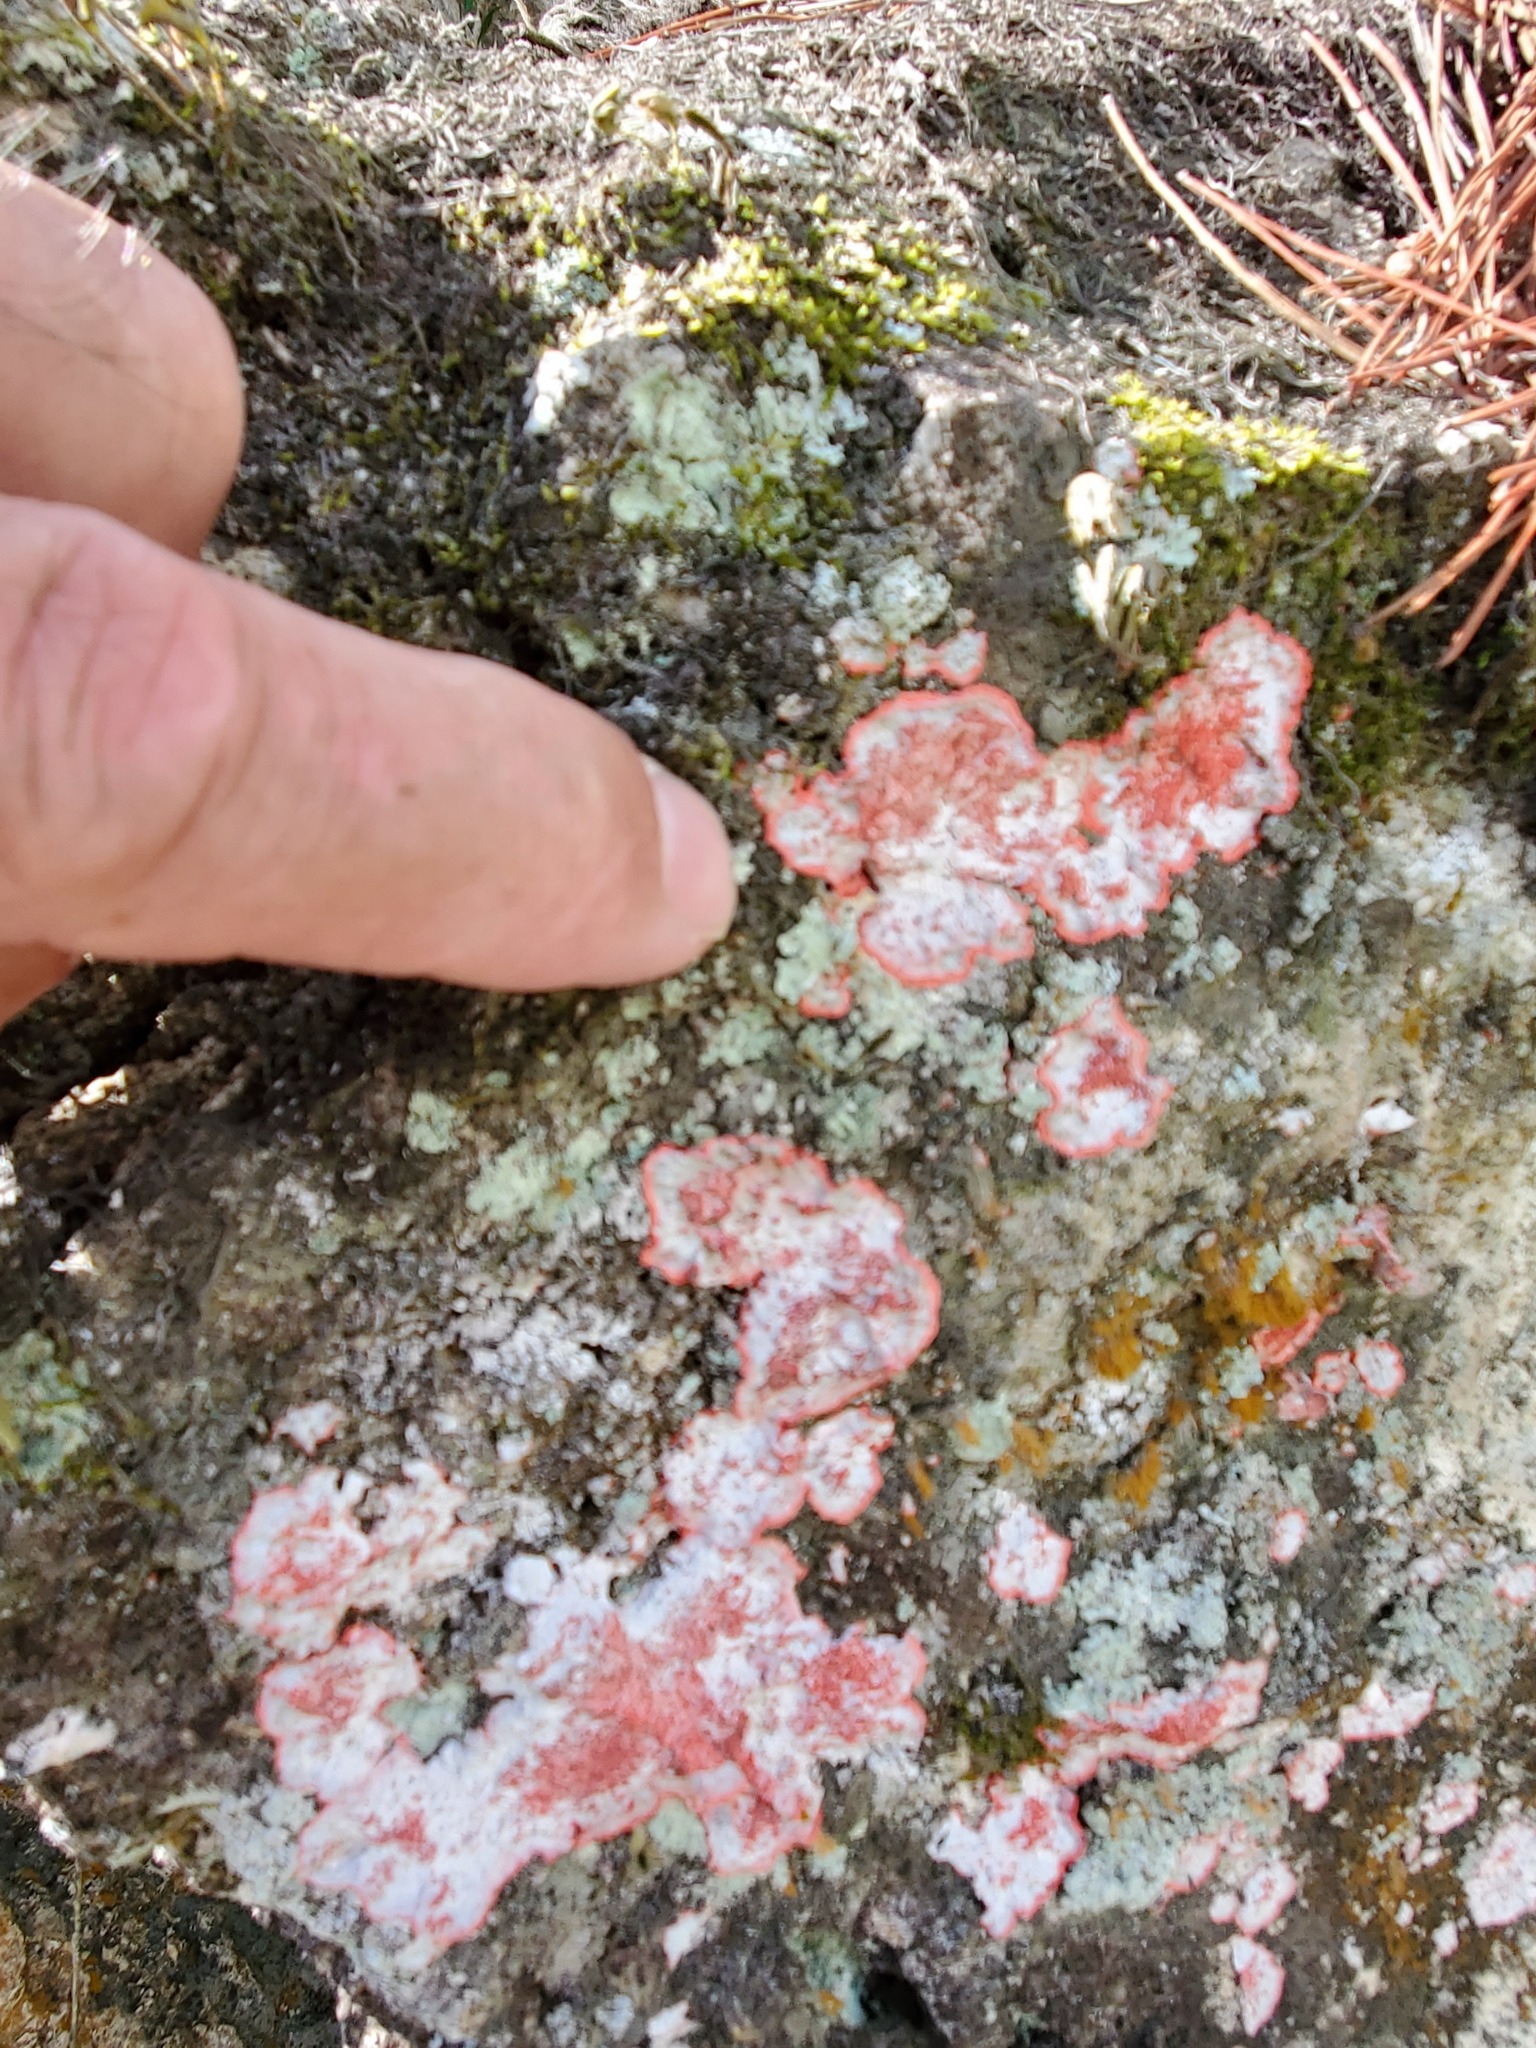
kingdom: Fungi
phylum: Ascomycota
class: Arthoniomycetes
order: Arthoniales
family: Arthoniaceae
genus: Herpothallon
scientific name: Herpothallon rubrocinctum
